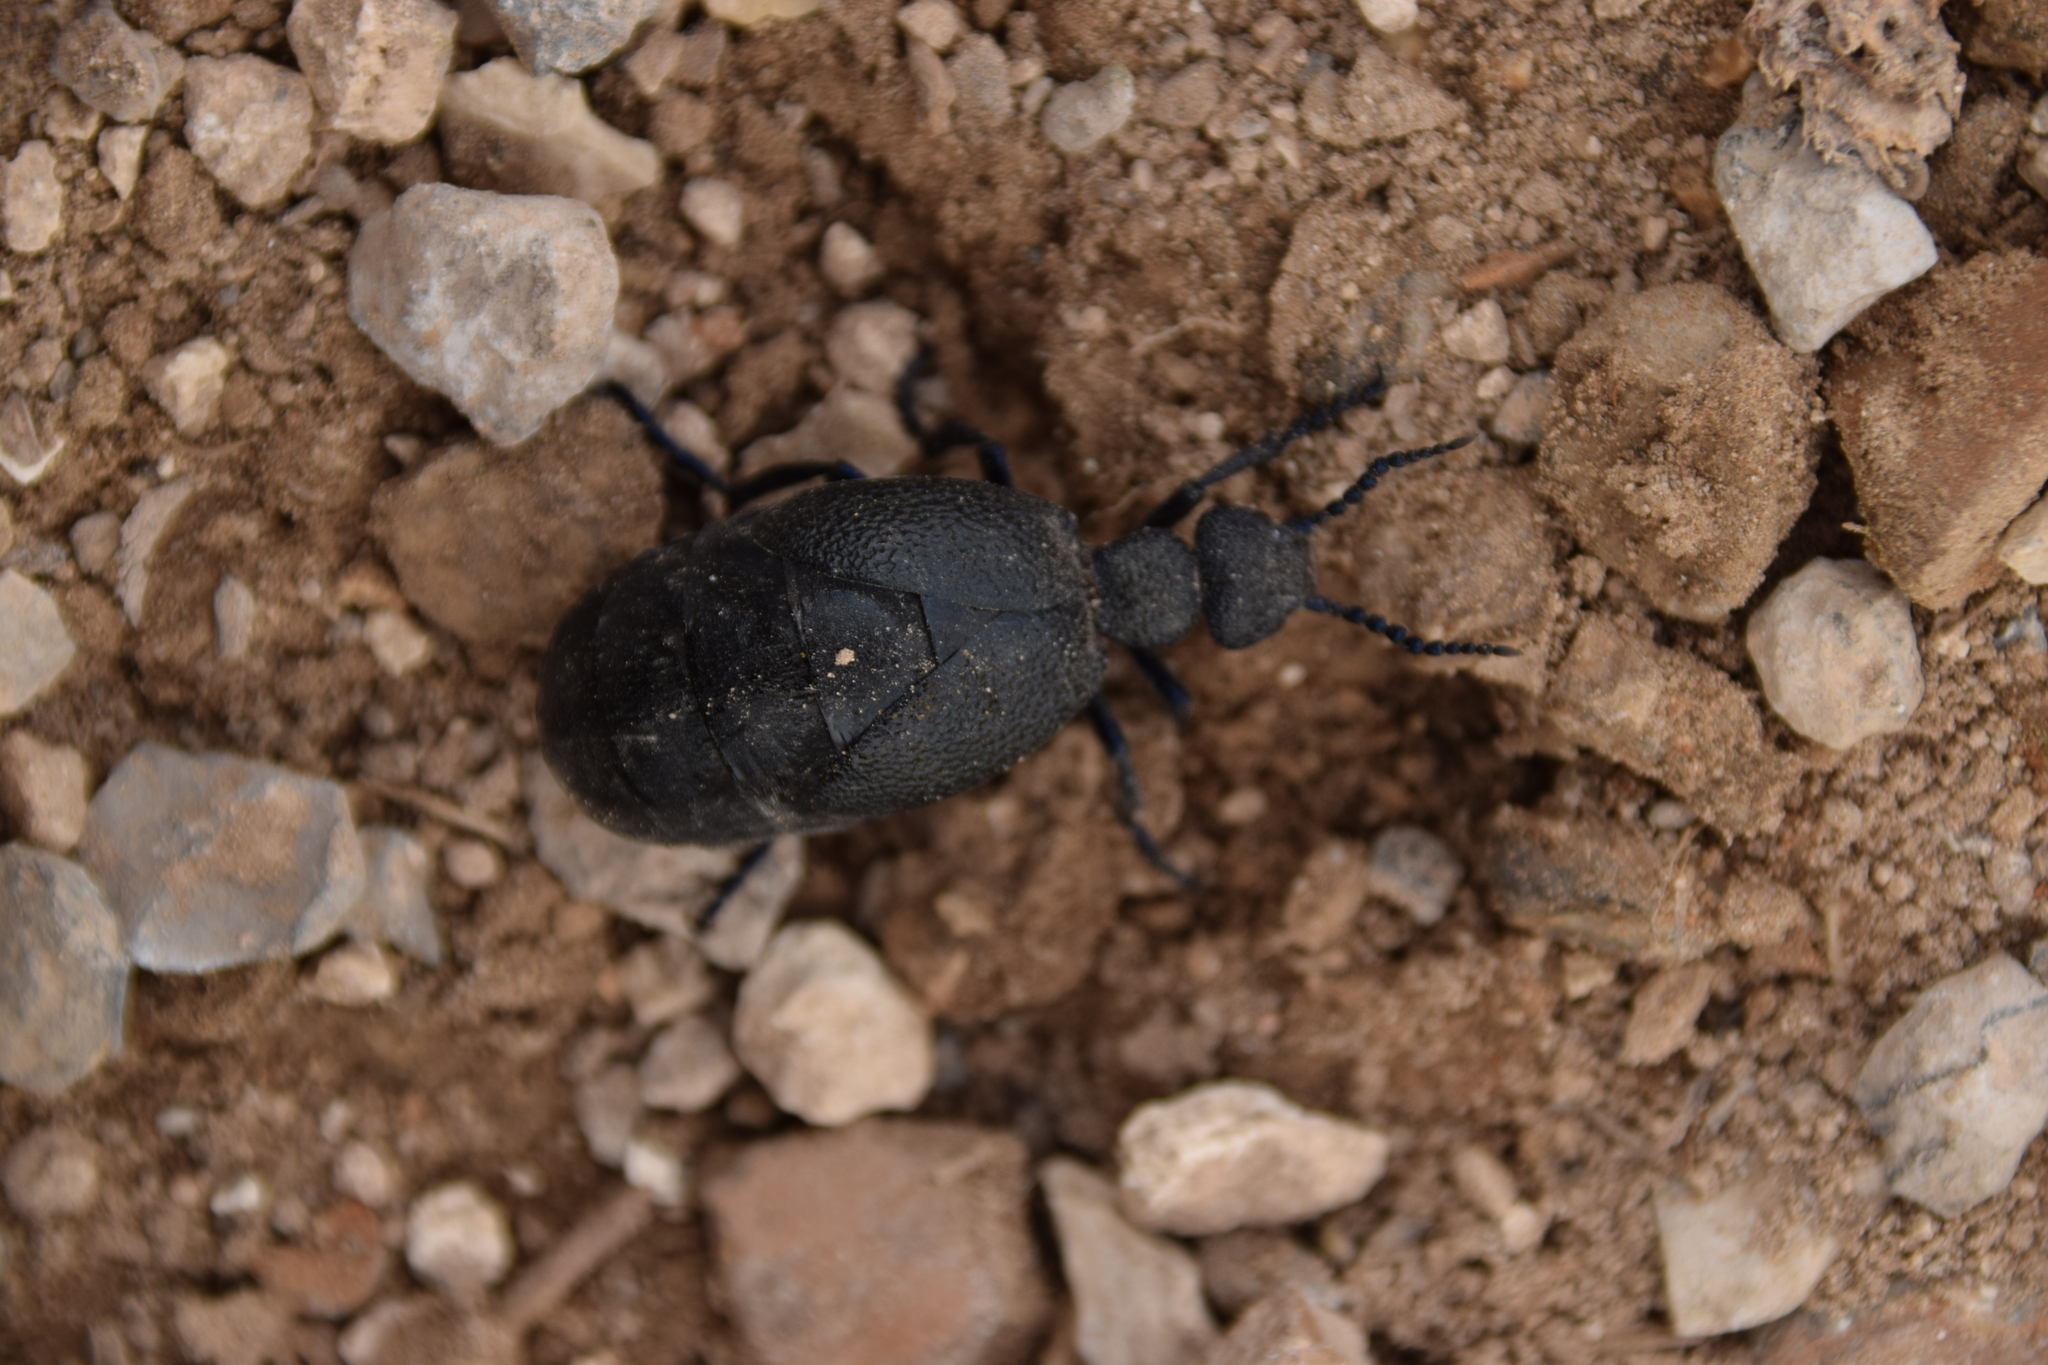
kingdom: Animalia
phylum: Arthropoda
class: Insecta
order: Coleoptera
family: Meloidae
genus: Meloe
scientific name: Meloe proscarabaeus
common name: Black oil-beetle
